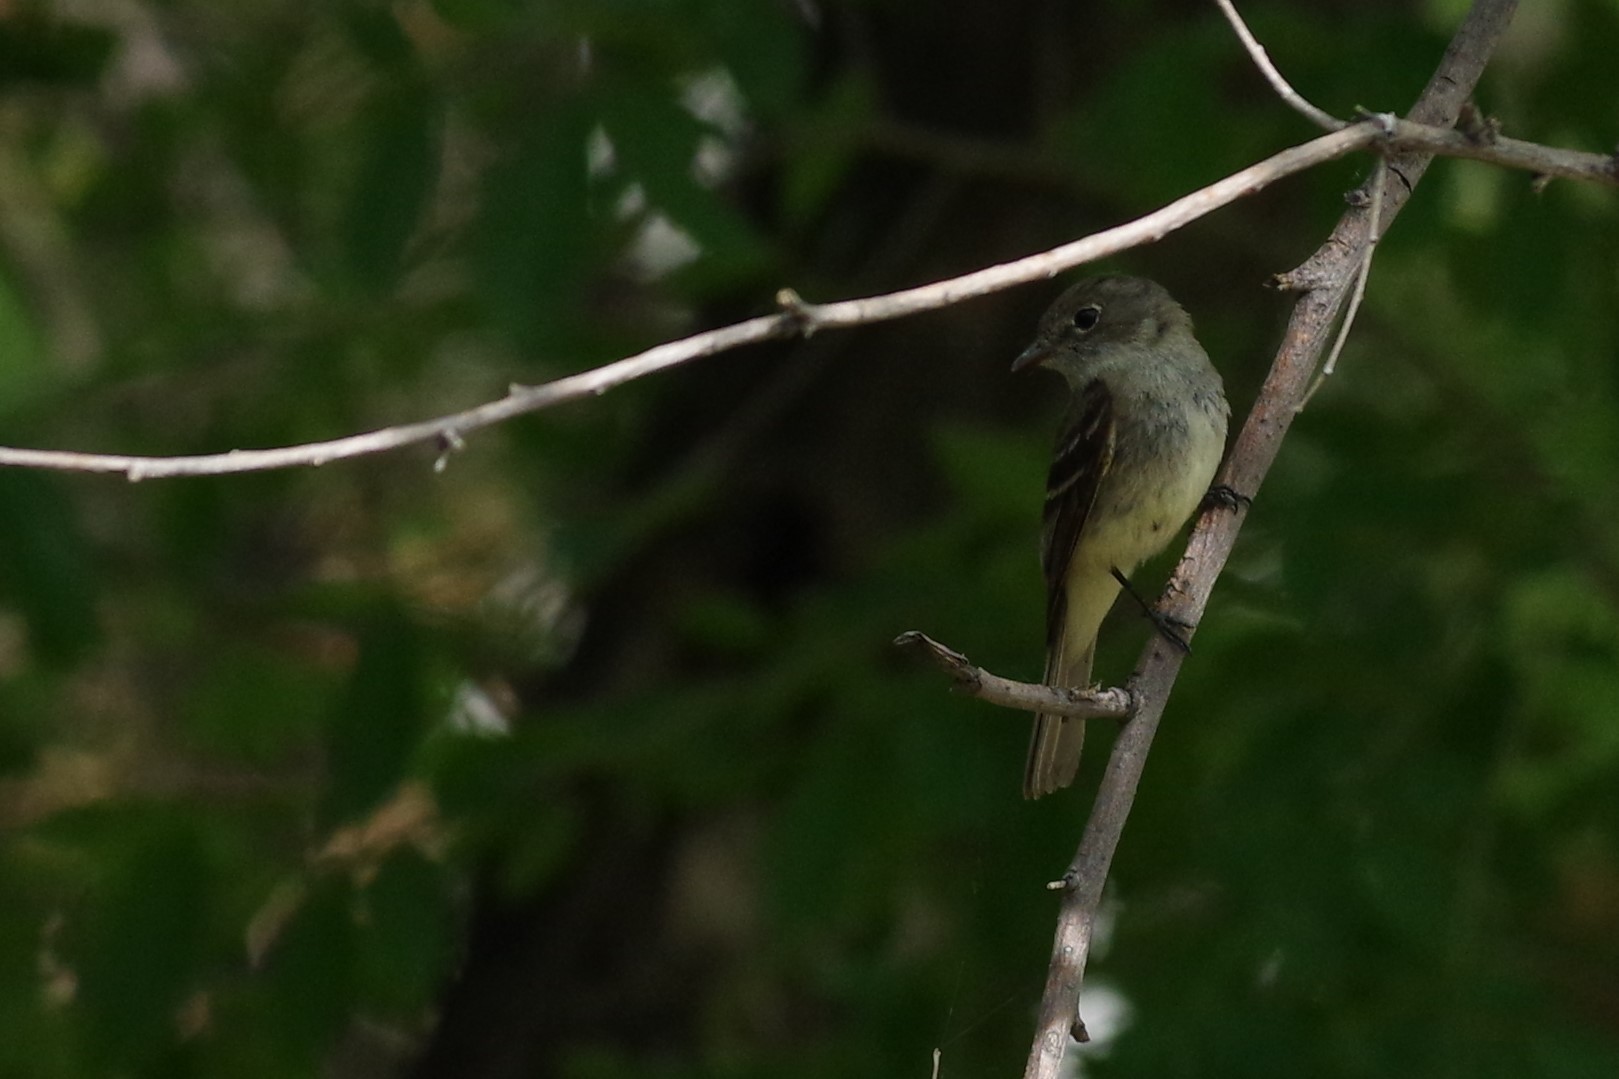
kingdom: Animalia
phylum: Chordata
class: Aves
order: Passeriformes
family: Tyrannidae
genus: Empidonax
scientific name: Empidonax minimus
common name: Least flycatcher
